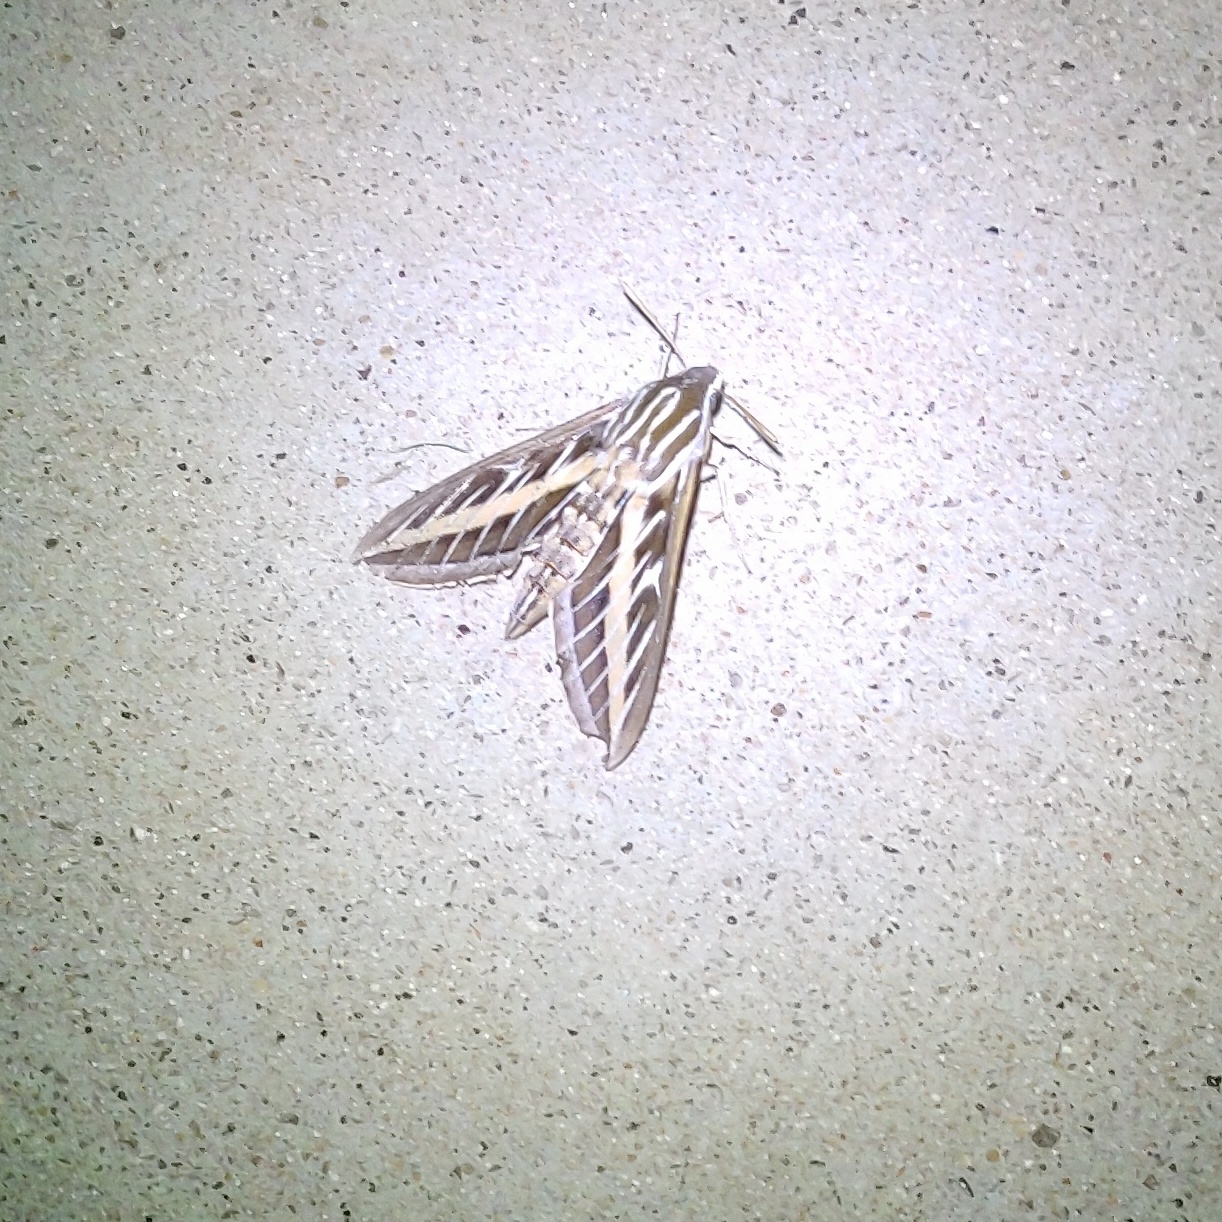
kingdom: Animalia
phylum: Arthropoda
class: Insecta
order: Lepidoptera
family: Sphingidae
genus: Hyles
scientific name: Hyles lineata
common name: White-lined sphinx
